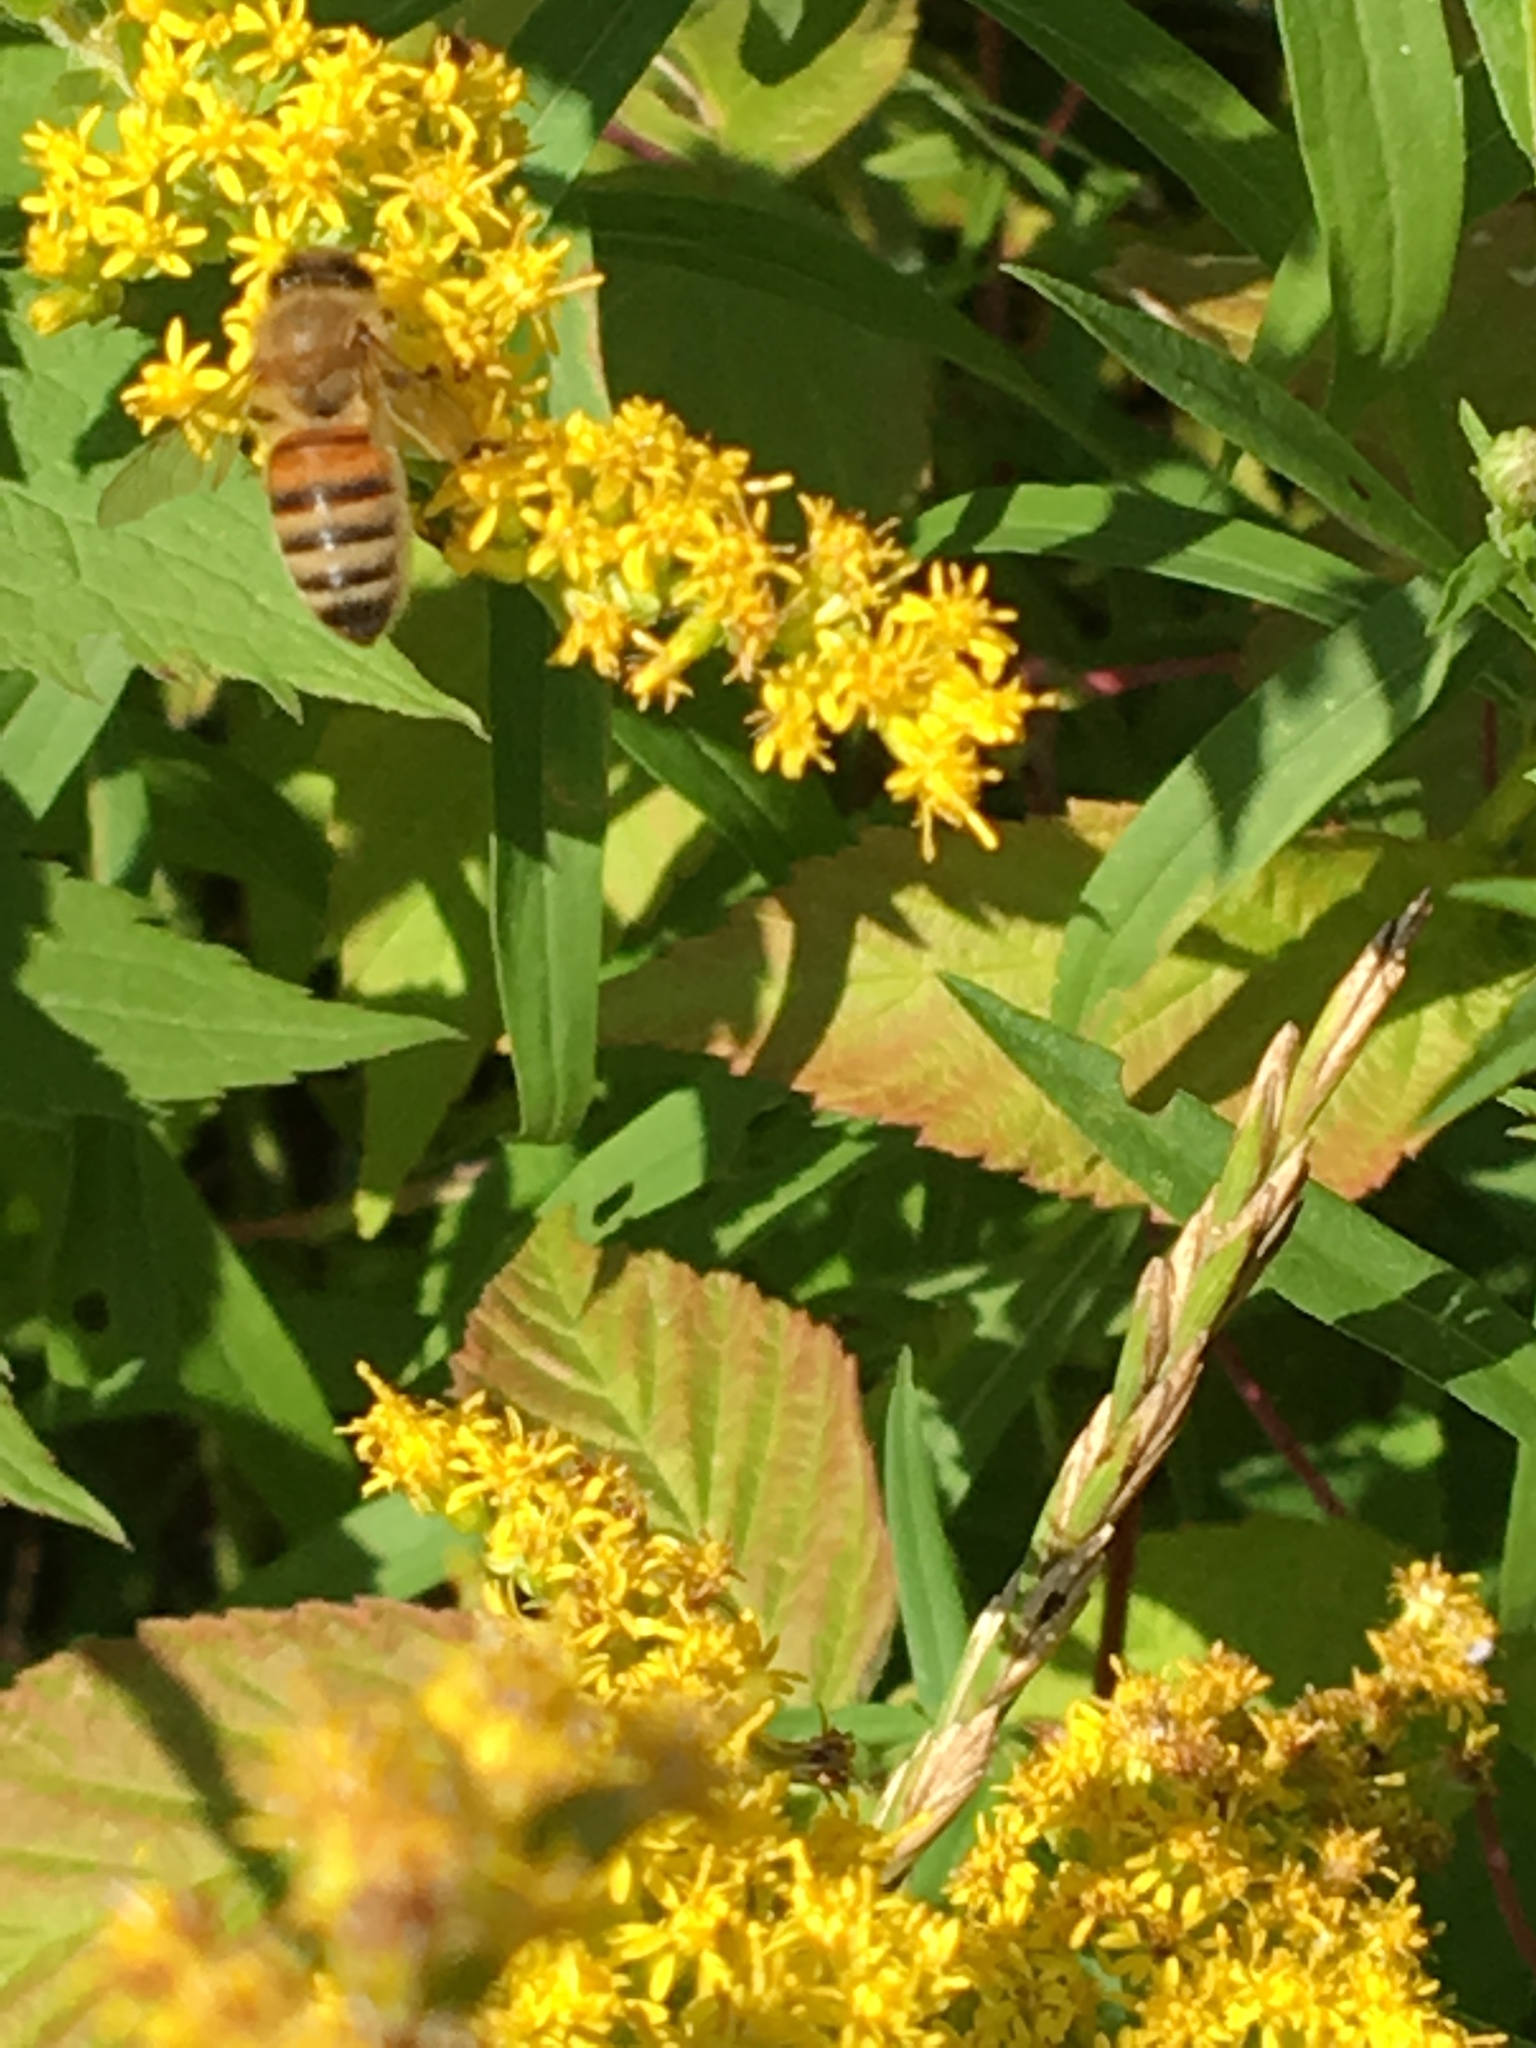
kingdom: Animalia
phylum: Arthropoda
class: Insecta
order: Hymenoptera
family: Apidae
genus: Apis
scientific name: Apis mellifera
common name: Honey bee
